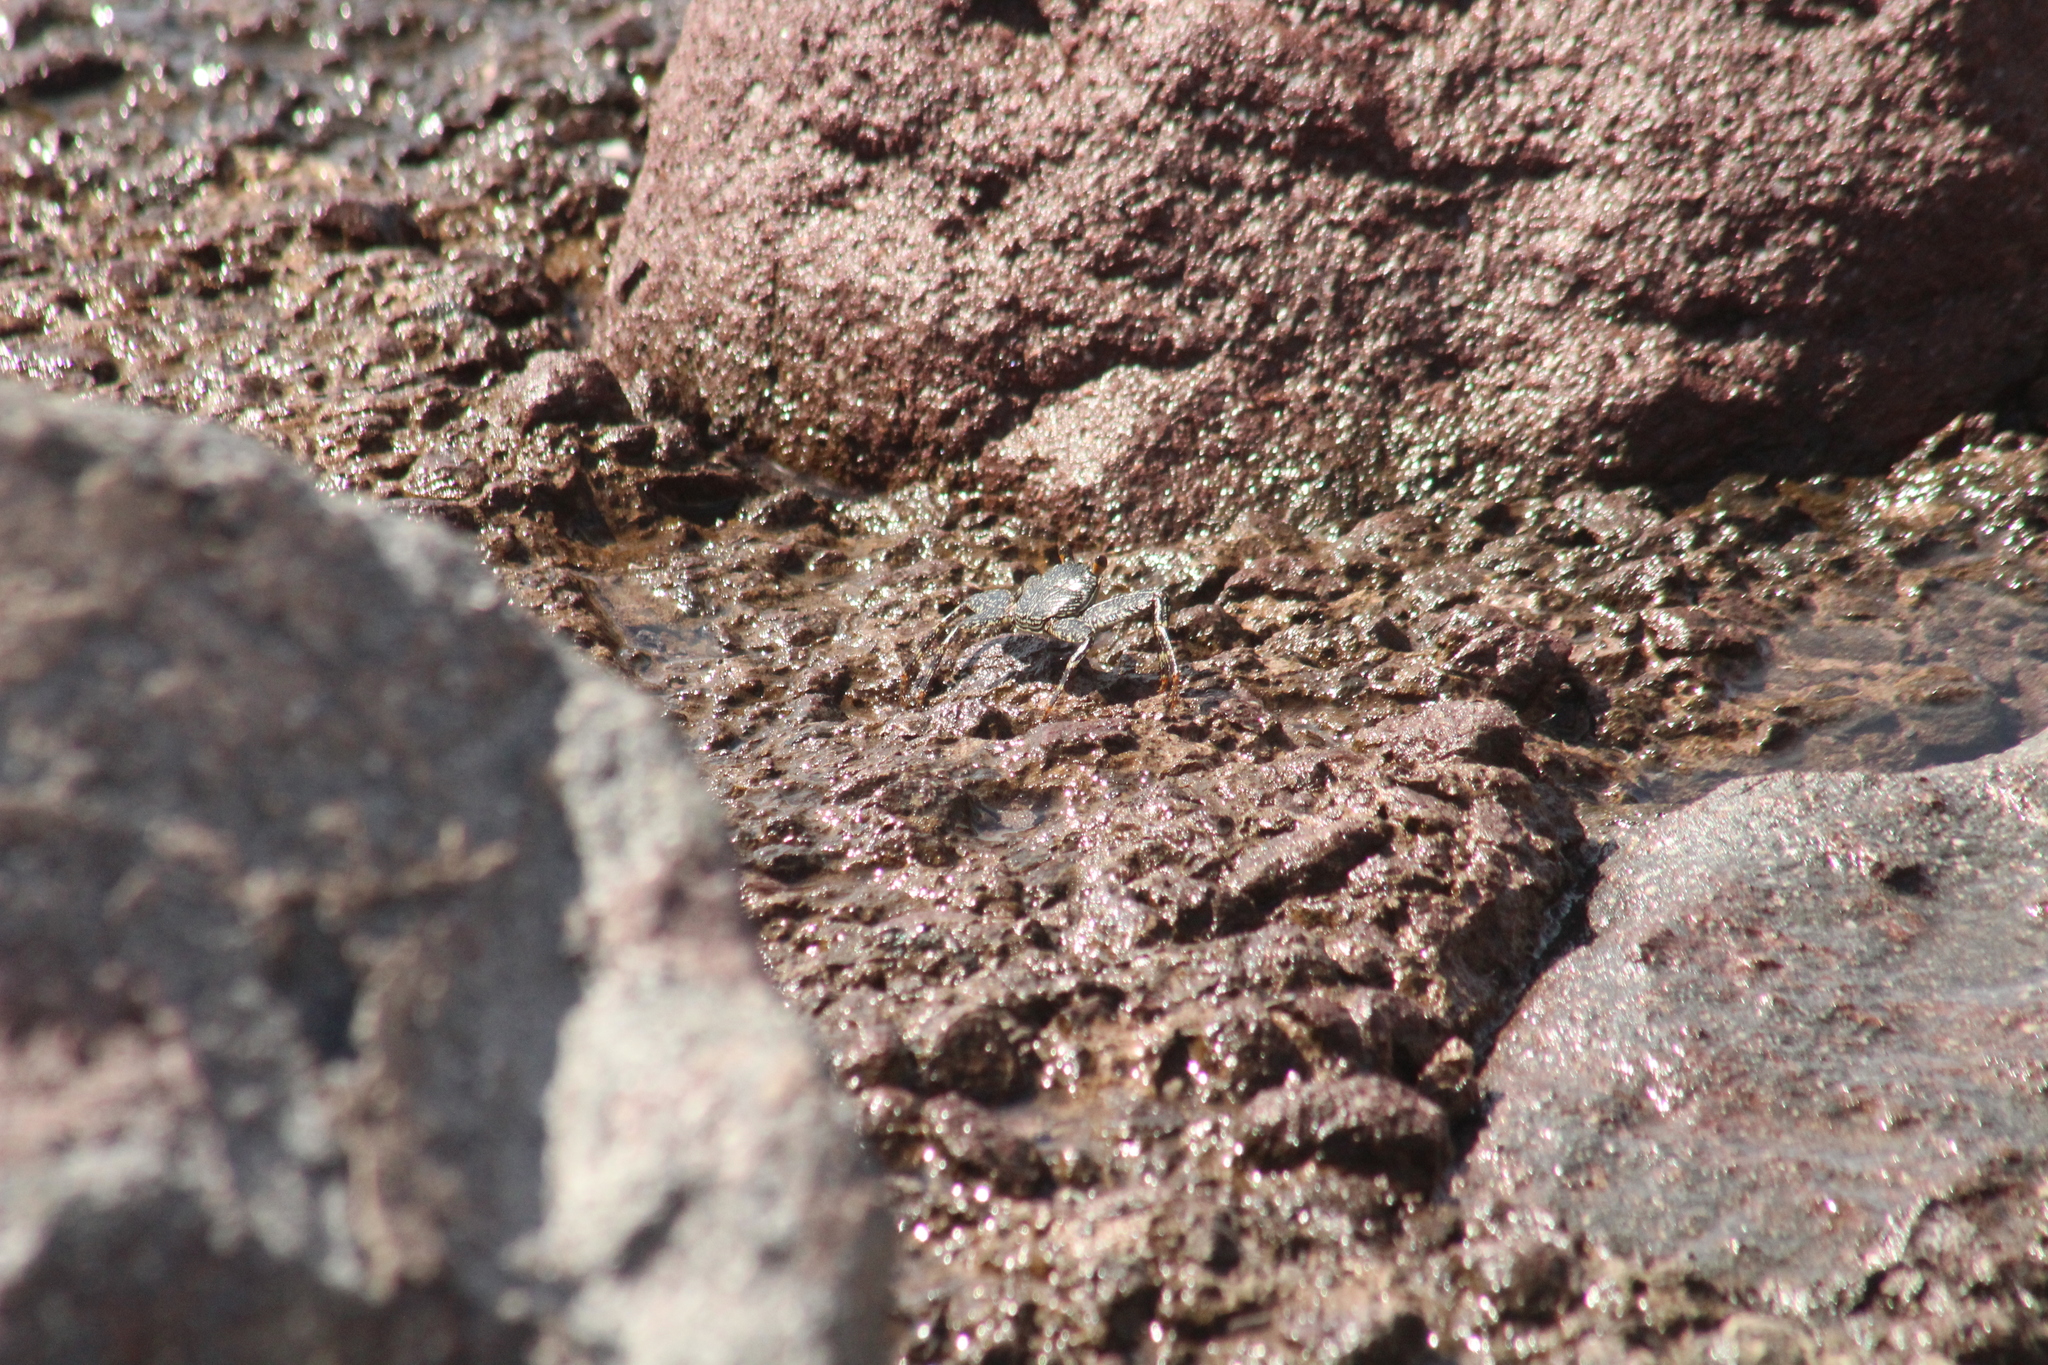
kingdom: Animalia
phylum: Arthropoda
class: Malacostraca
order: Decapoda
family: Grapsidae
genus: Grapsus
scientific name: Grapsus grapsus
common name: Sally lightfoot
